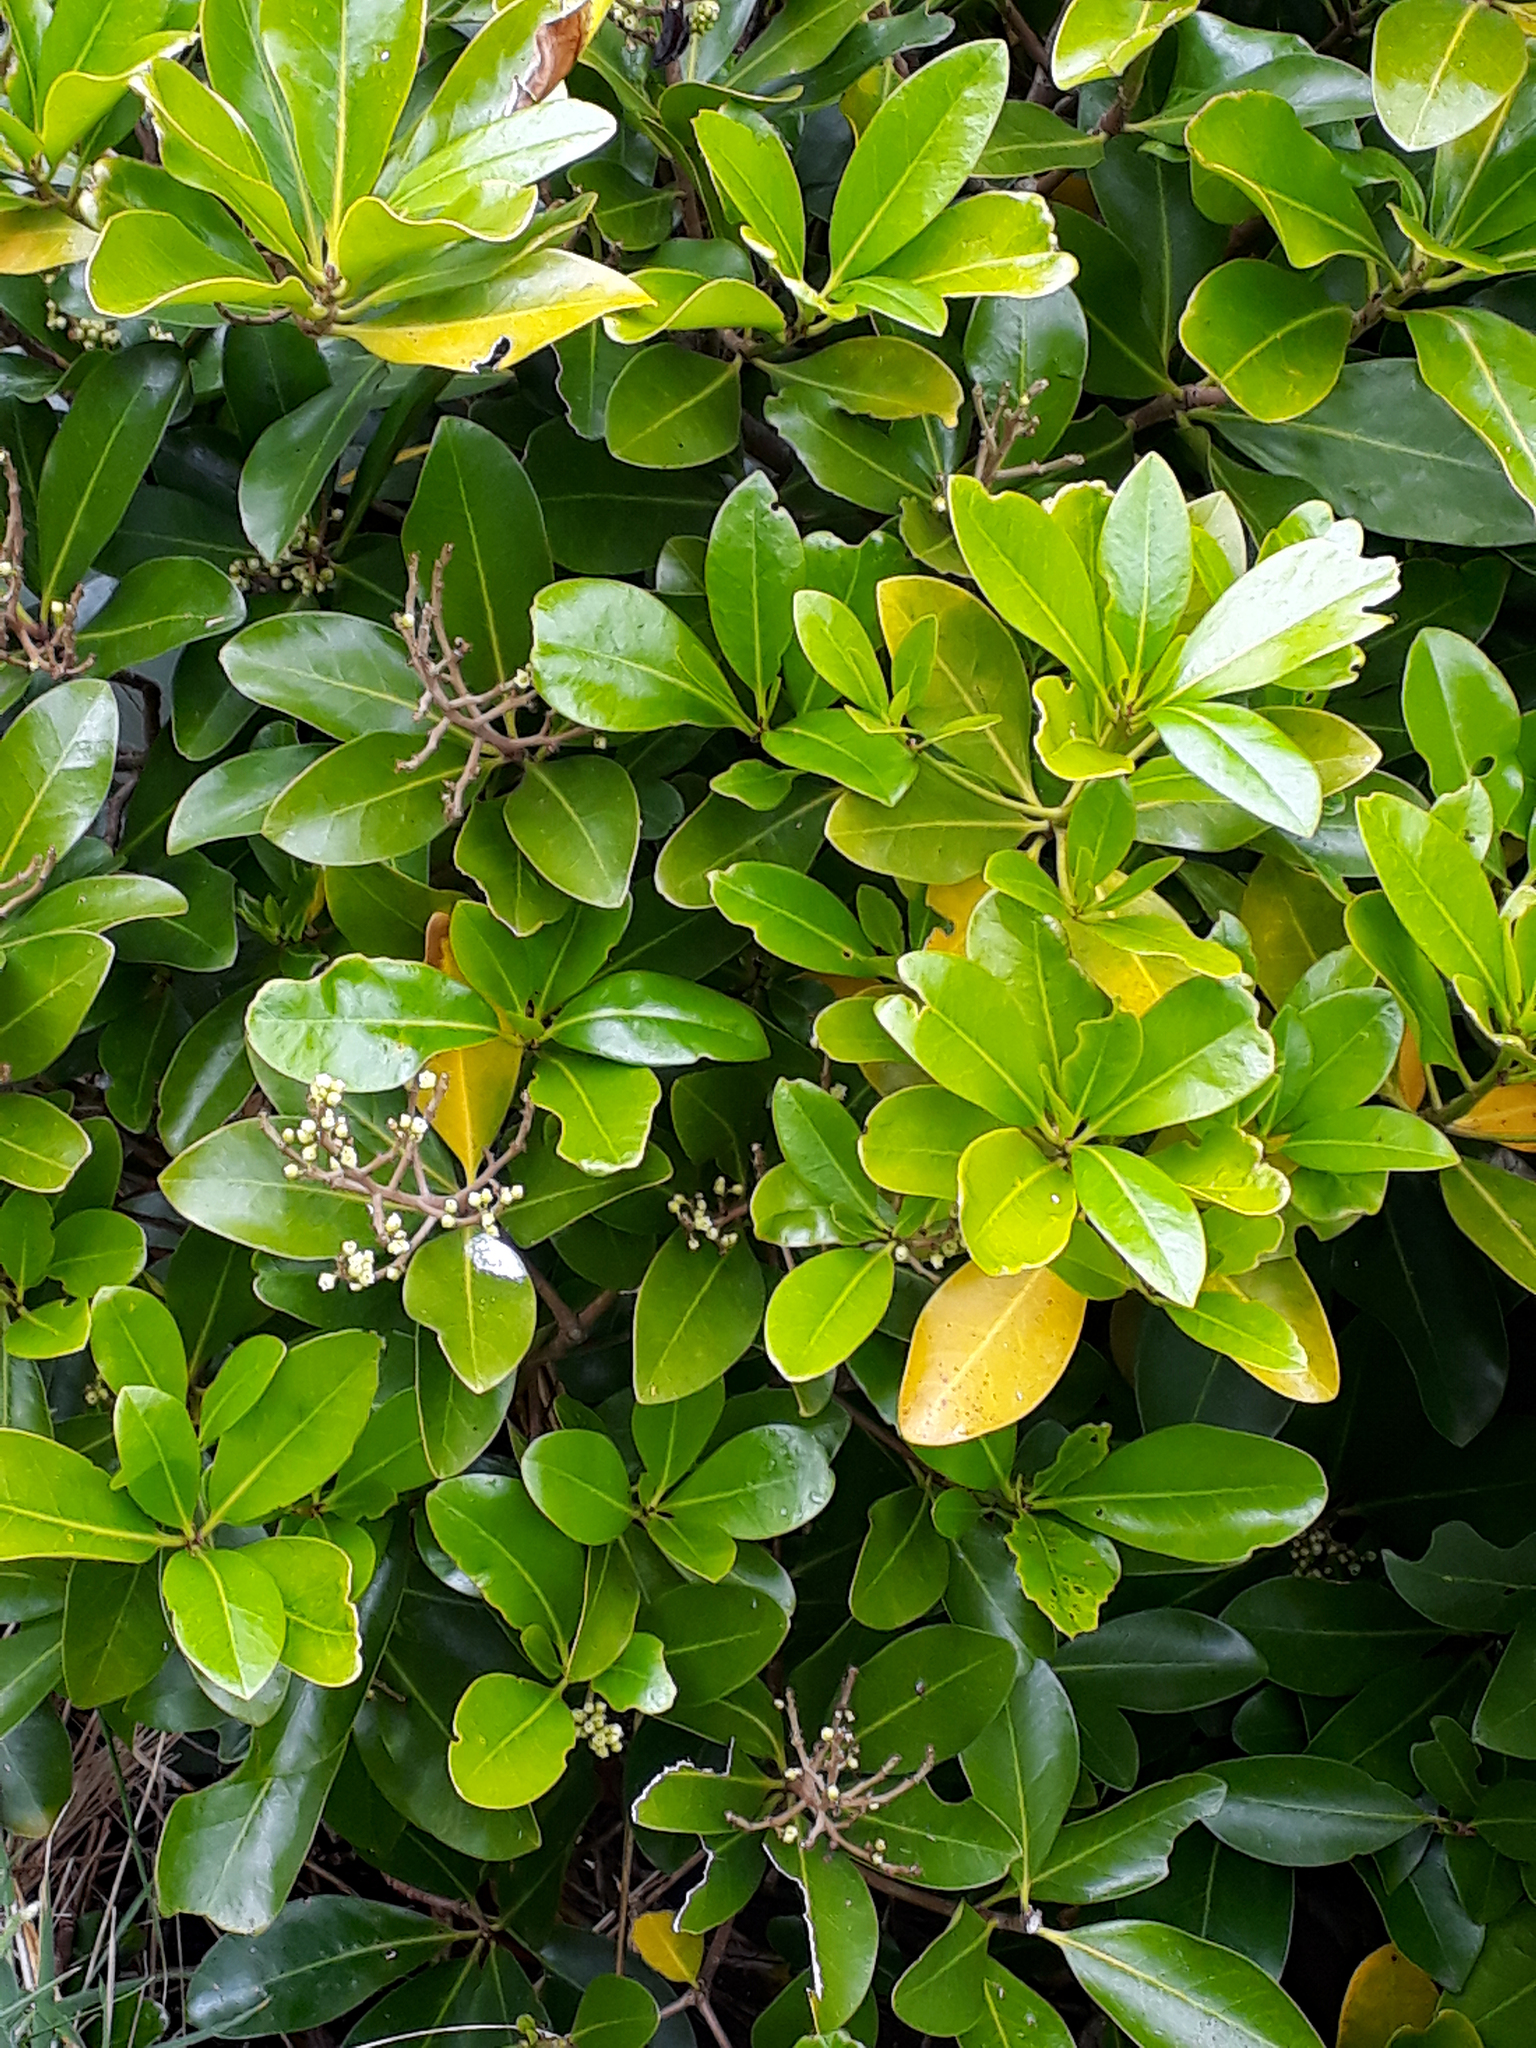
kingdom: Plantae
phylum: Tracheophyta
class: Magnoliopsida
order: Cucurbitales
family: Corynocarpaceae
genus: Corynocarpus
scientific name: Corynocarpus laevigatus
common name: New zealand laurel
